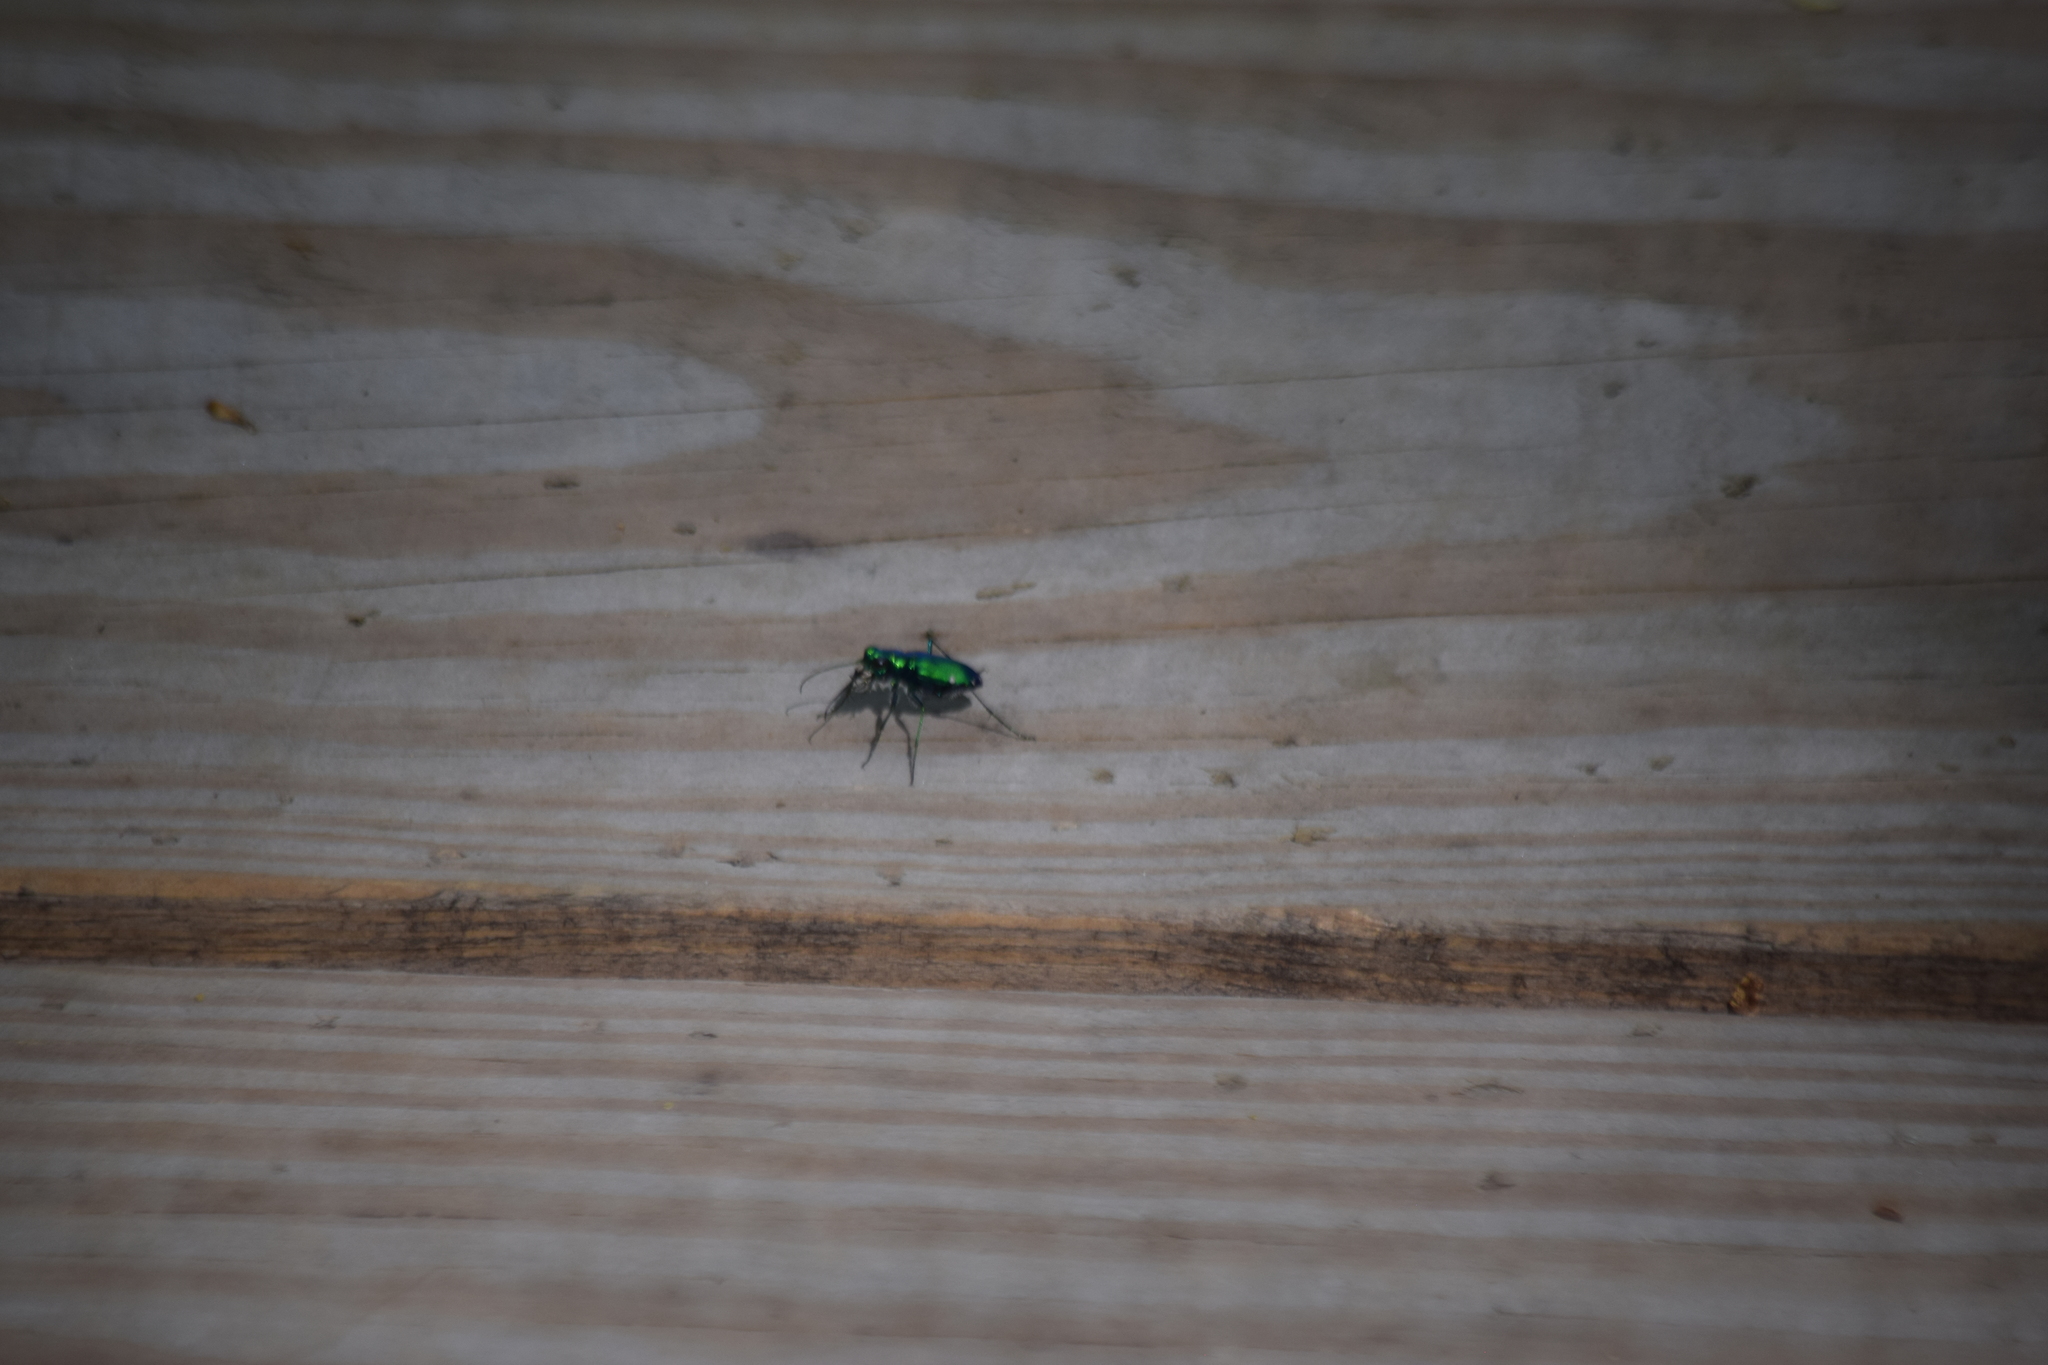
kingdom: Animalia
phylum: Arthropoda
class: Insecta
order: Coleoptera
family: Carabidae
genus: Cicindela
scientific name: Cicindela sexguttata
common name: Six-spotted tiger beetle
